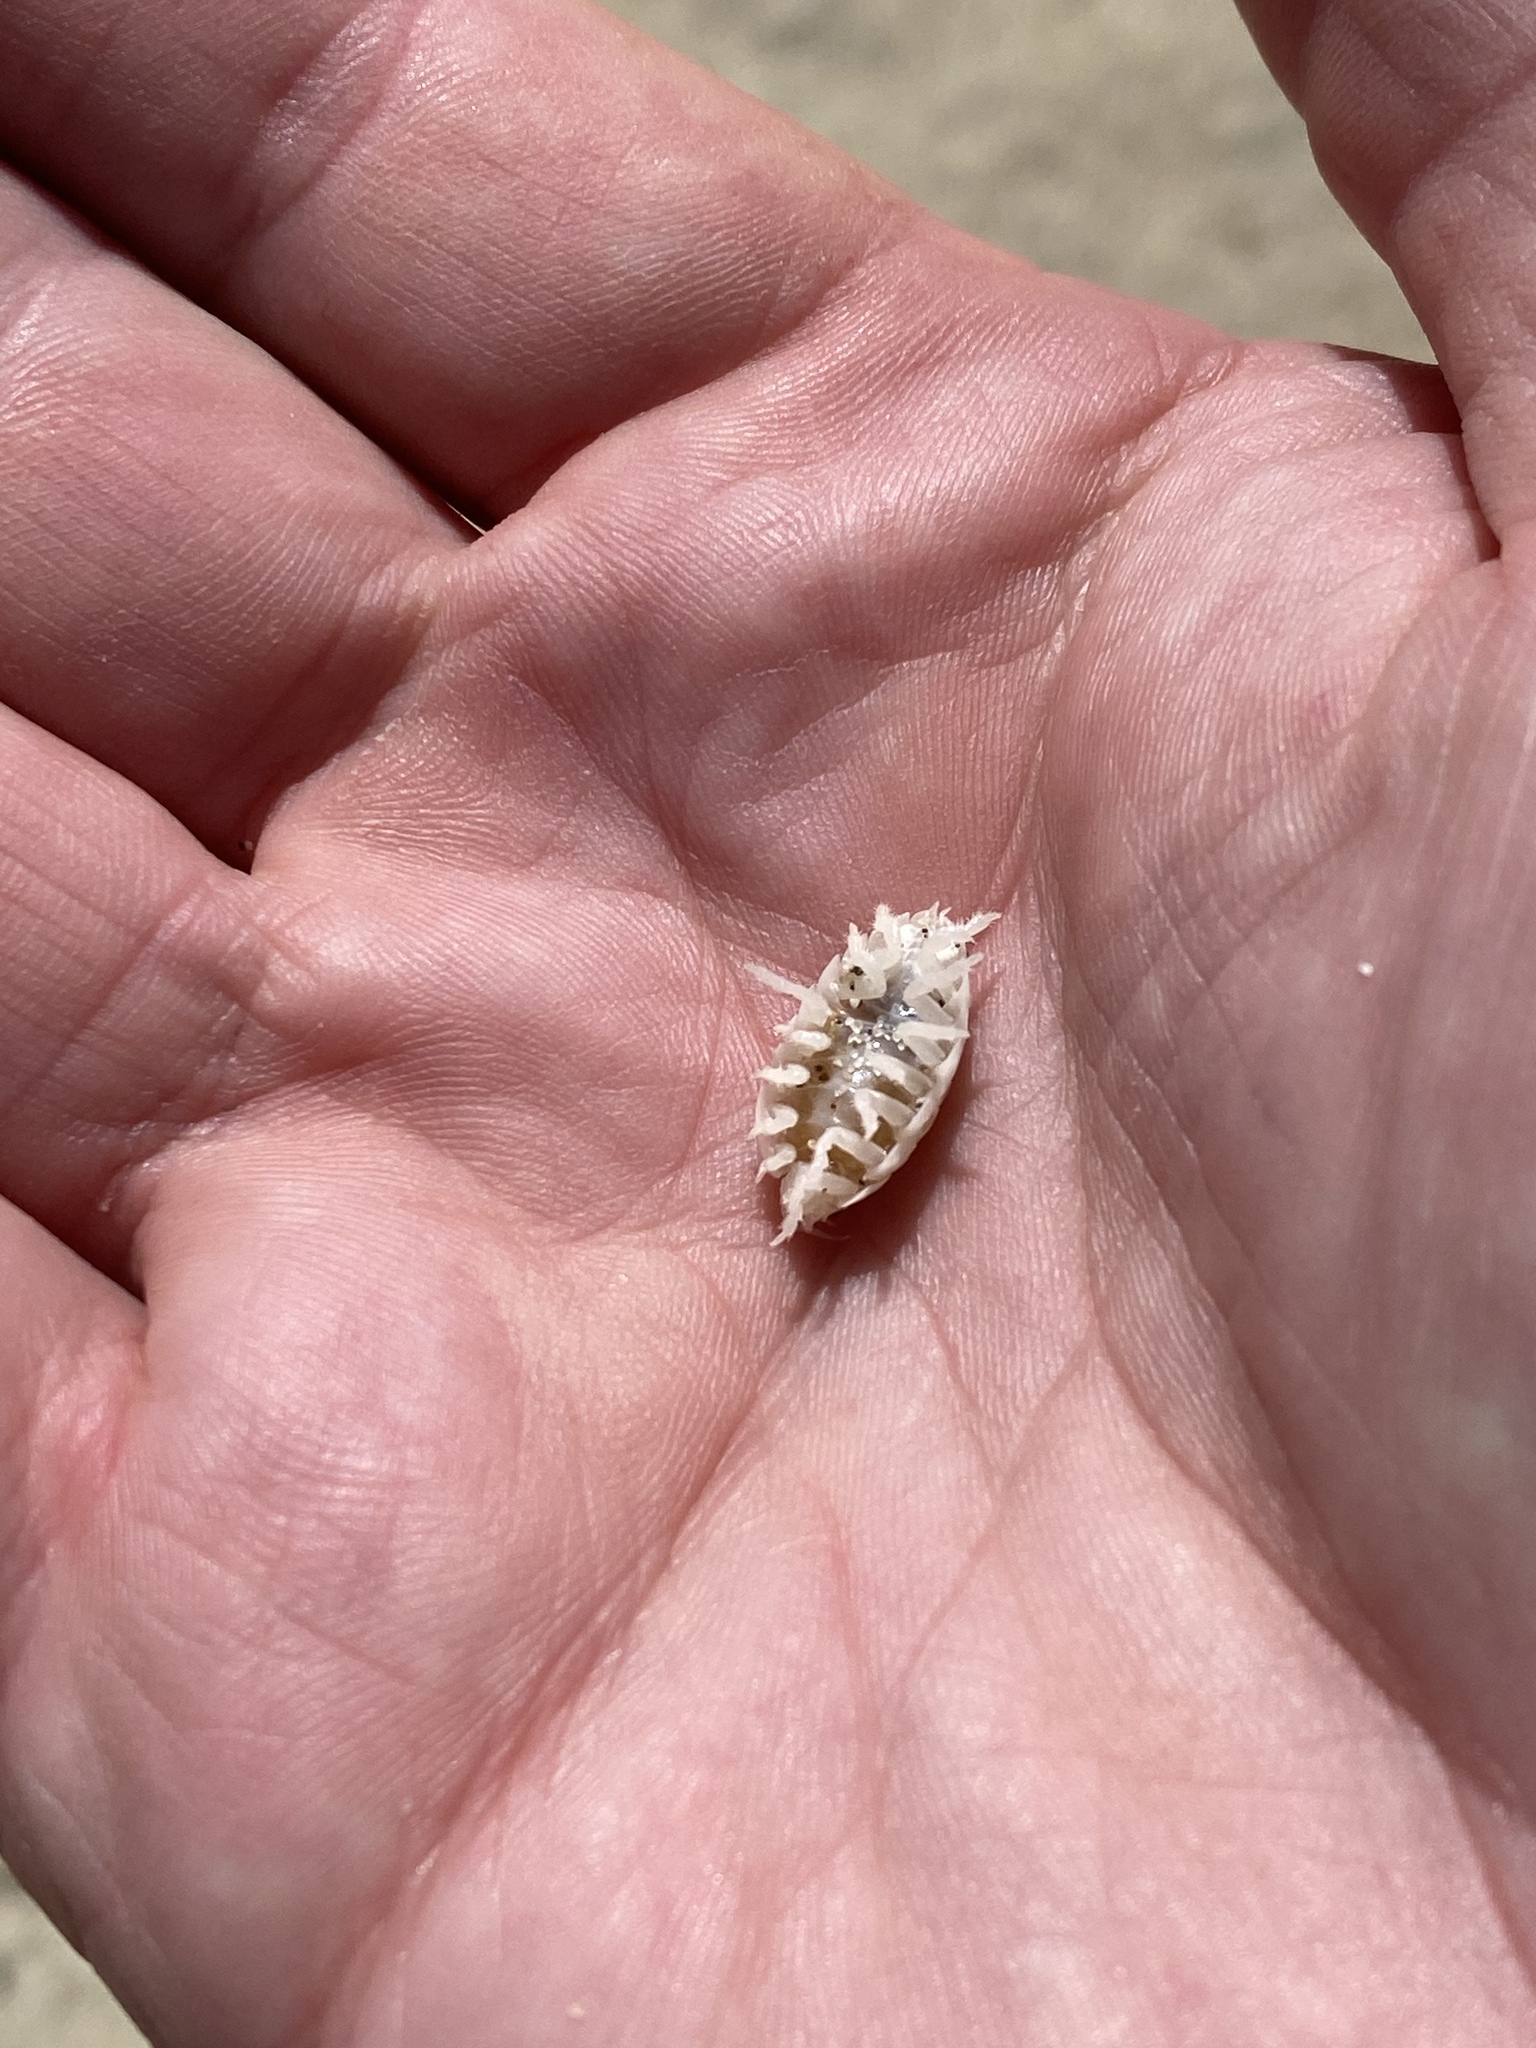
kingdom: Animalia
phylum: Arthropoda
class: Malacostraca
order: Isopoda
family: Alloniscidae
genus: Alloniscus
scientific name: Alloniscus perconvexus
